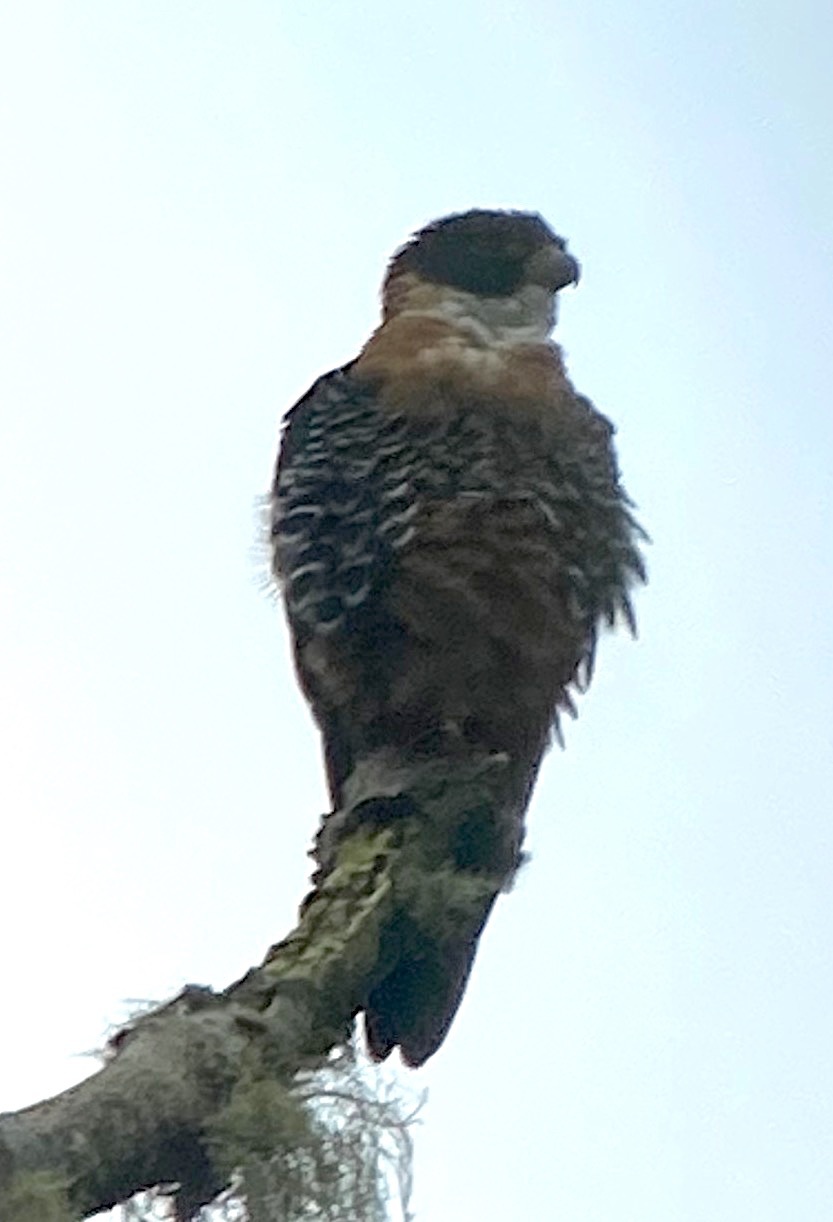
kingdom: Animalia
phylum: Chordata
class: Aves
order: Falconiformes
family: Falconidae
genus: Falco
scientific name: Falco deiroleucus
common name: Orange-breasted falcon
